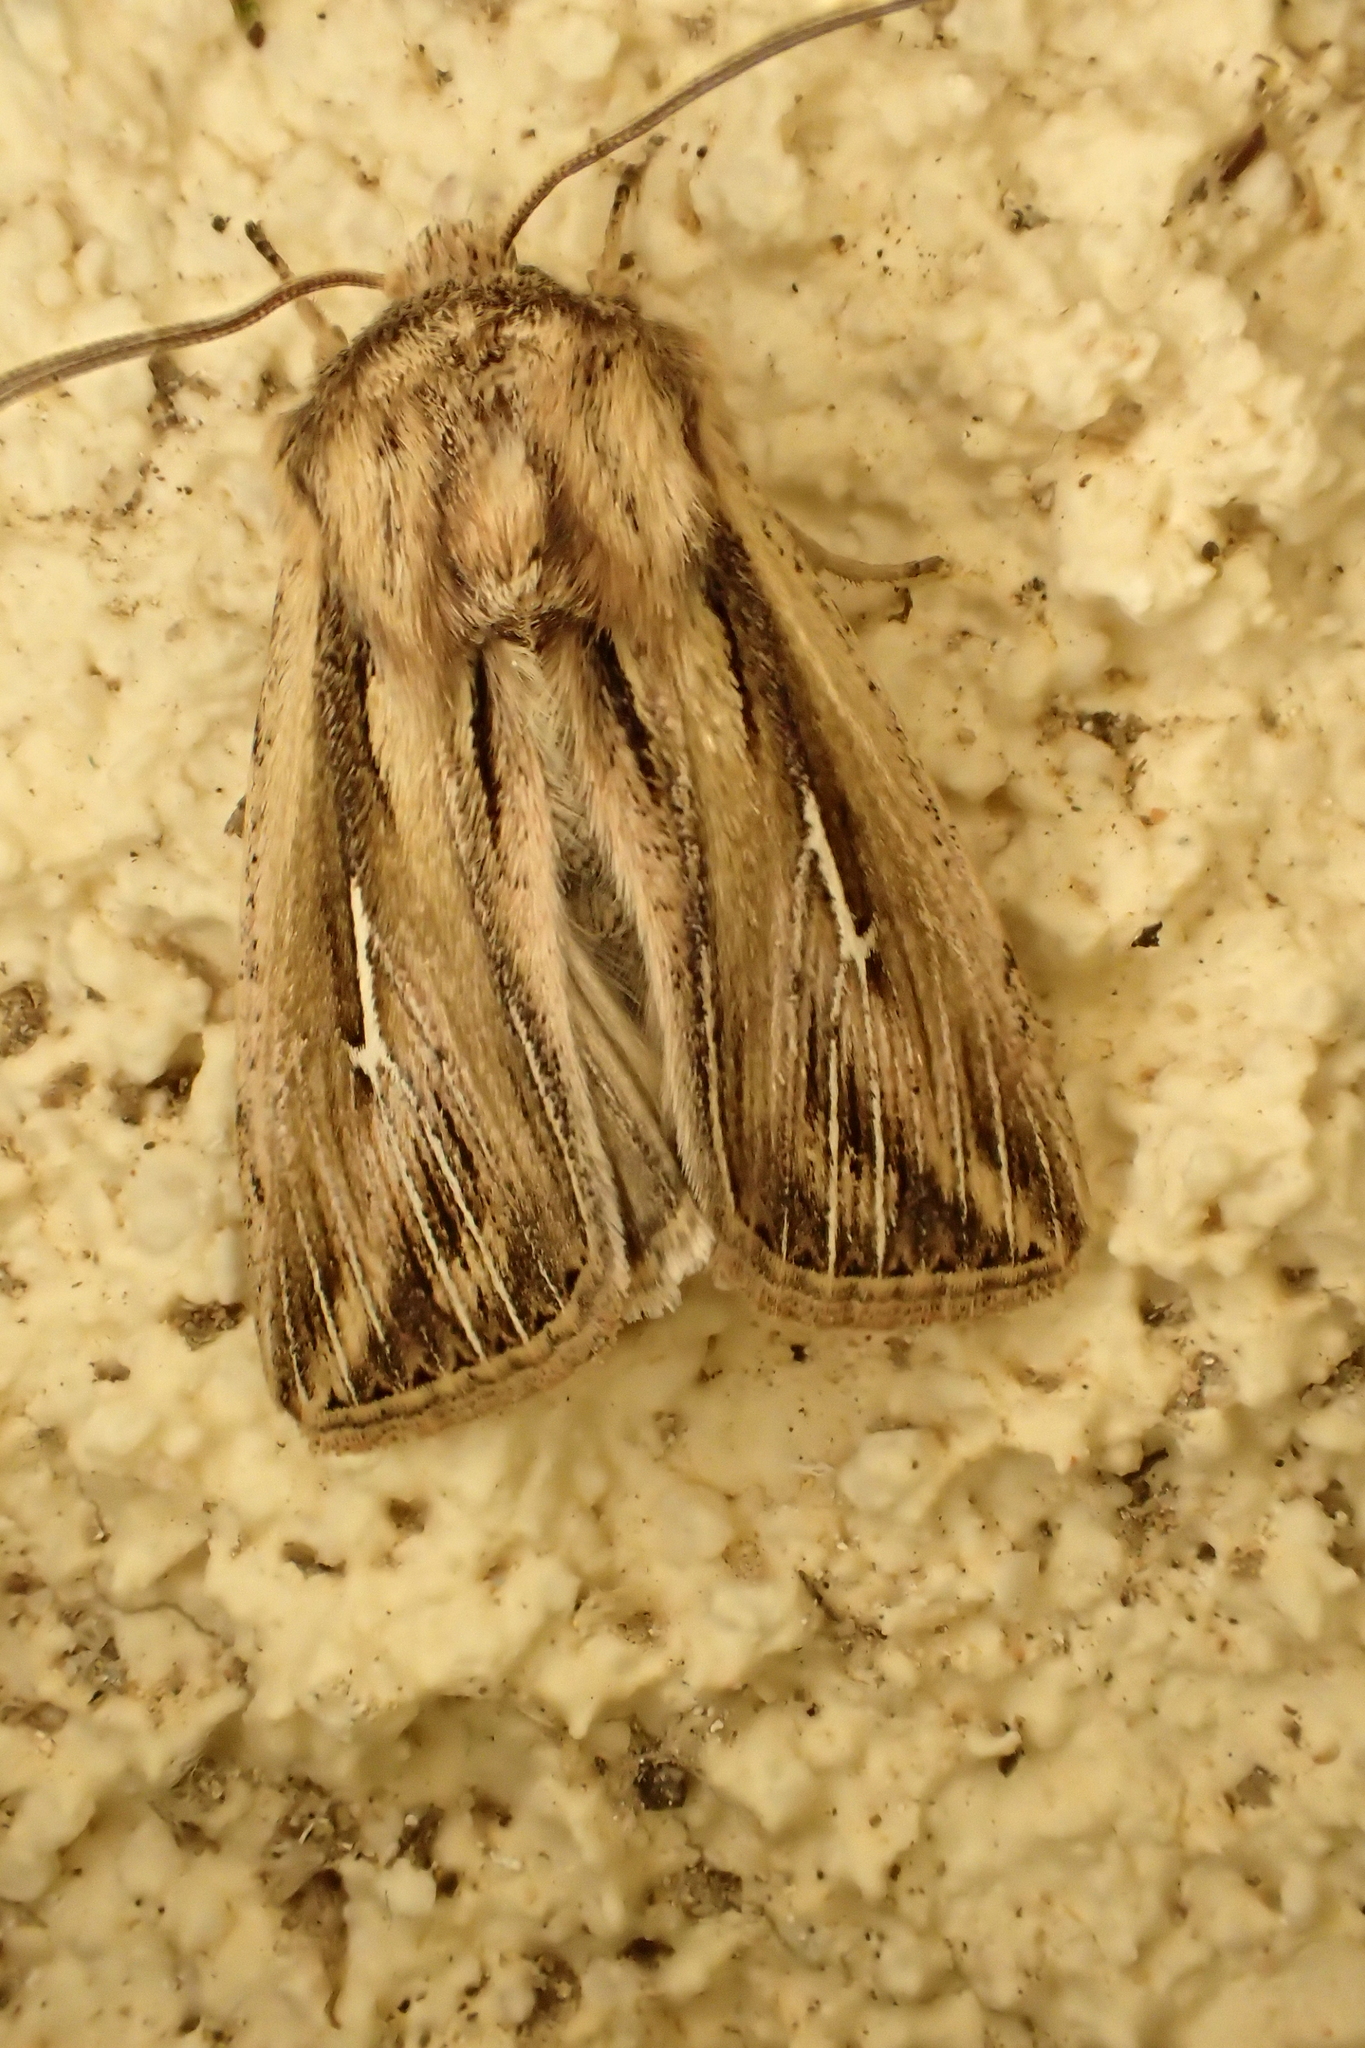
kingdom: Animalia
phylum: Arthropoda
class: Insecta
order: Lepidoptera
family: Noctuidae
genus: Mythimna
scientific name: Mythimna l-album
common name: L-album wainscot
